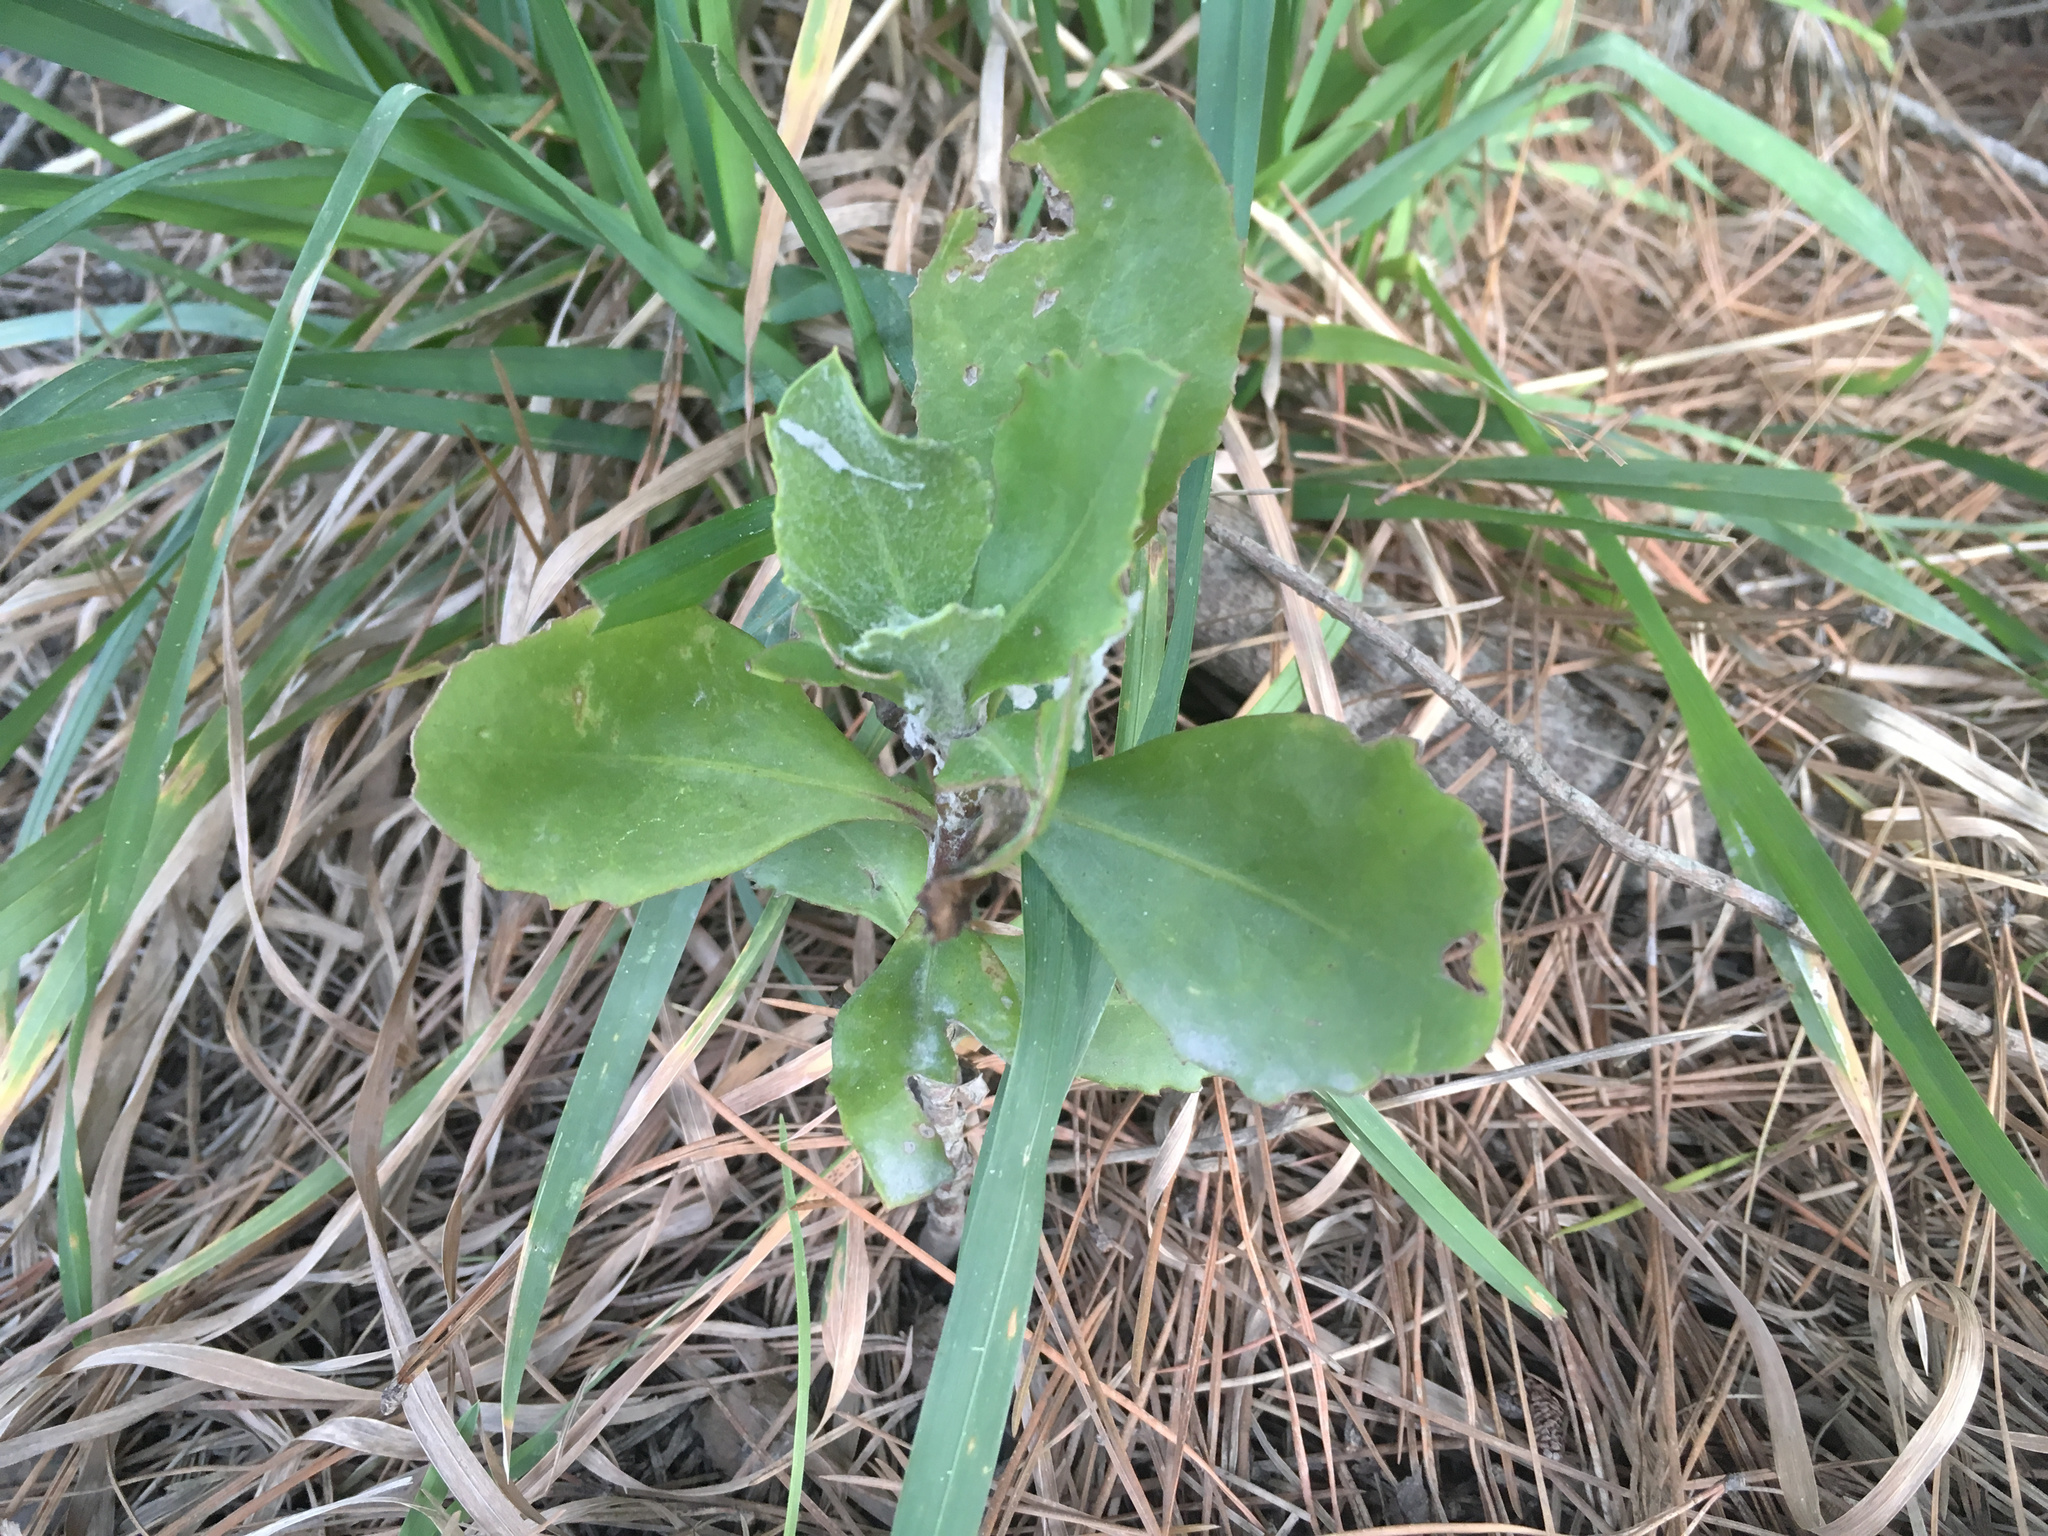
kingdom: Plantae
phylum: Tracheophyta
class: Magnoliopsida
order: Asterales
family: Asteraceae
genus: Osteospermum
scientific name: Osteospermum moniliferum
